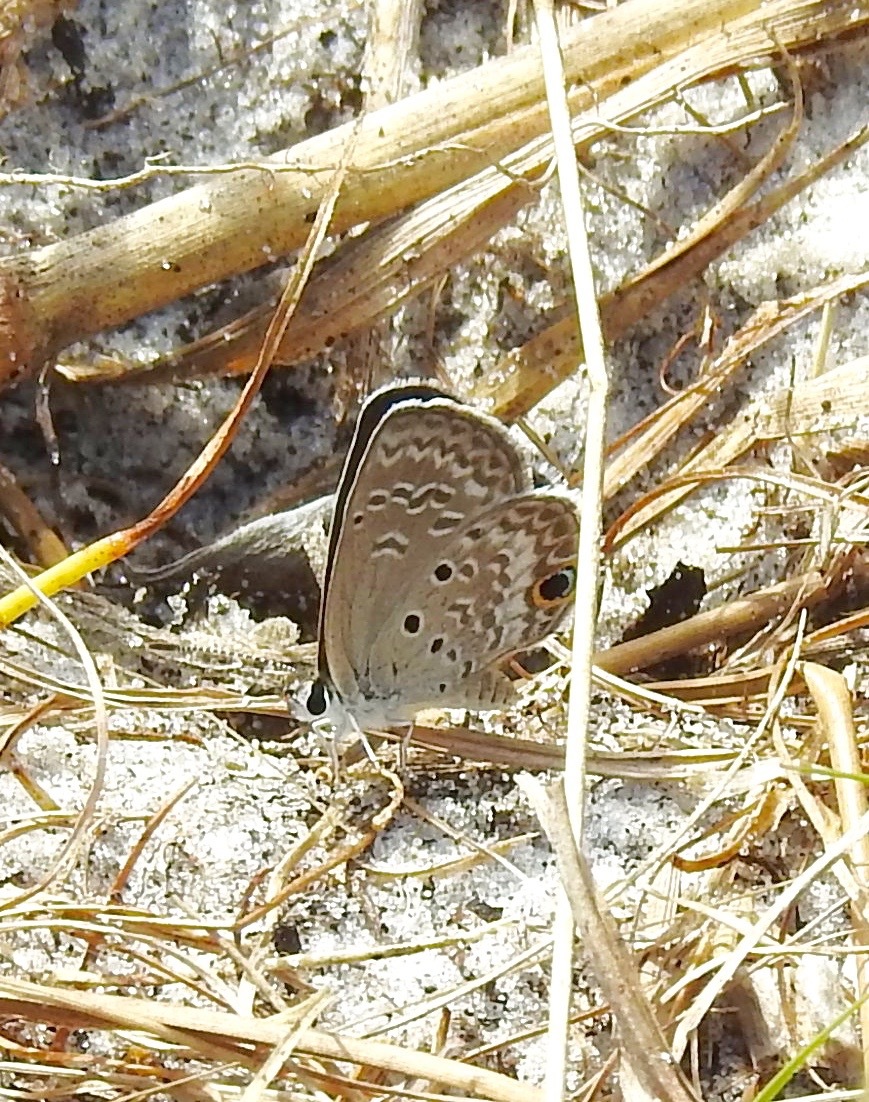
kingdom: Animalia
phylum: Arthropoda
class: Insecta
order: Lepidoptera
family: Lycaenidae
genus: Hemiargus
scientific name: Hemiargus ceraunus
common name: Ceraunus blue
